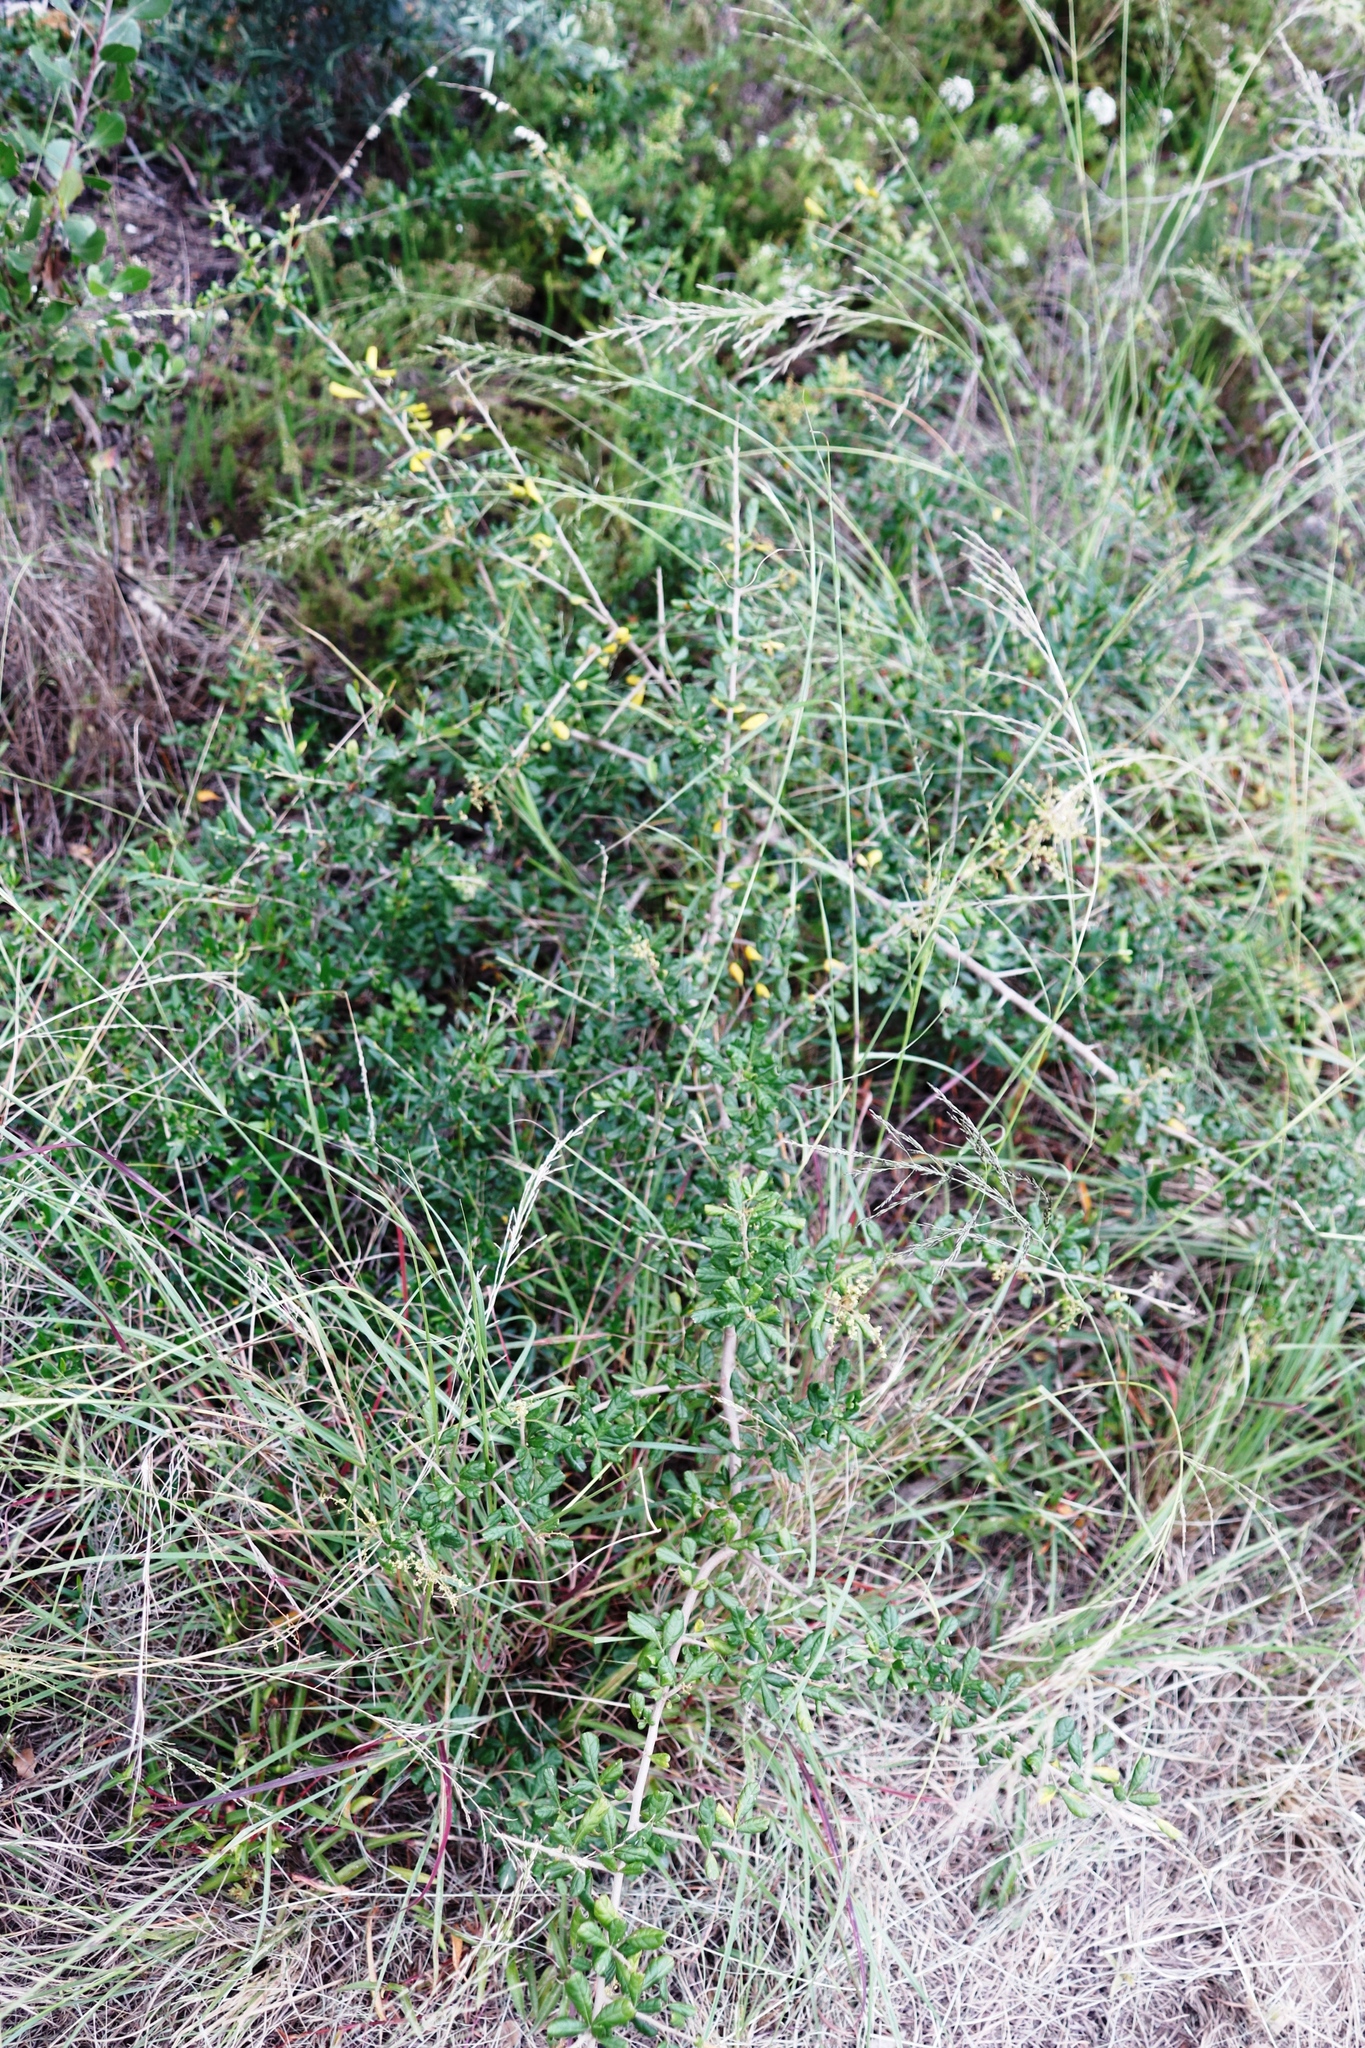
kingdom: Plantae
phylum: Tracheophyta
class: Magnoliopsida
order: Sapindales
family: Anacardiaceae
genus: Searsia
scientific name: Searsia refracta
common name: Thorny crow-berry
